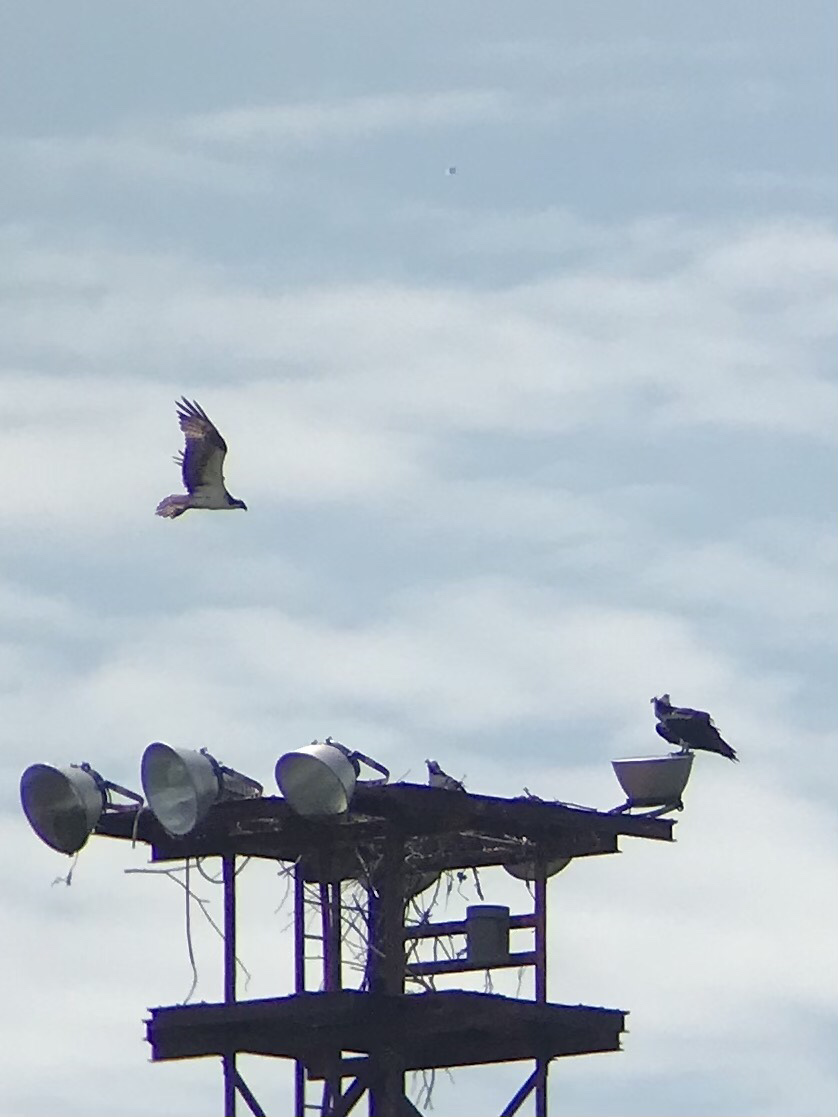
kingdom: Animalia
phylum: Chordata
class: Aves
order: Accipitriformes
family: Pandionidae
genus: Pandion
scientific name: Pandion haliaetus
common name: Osprey
